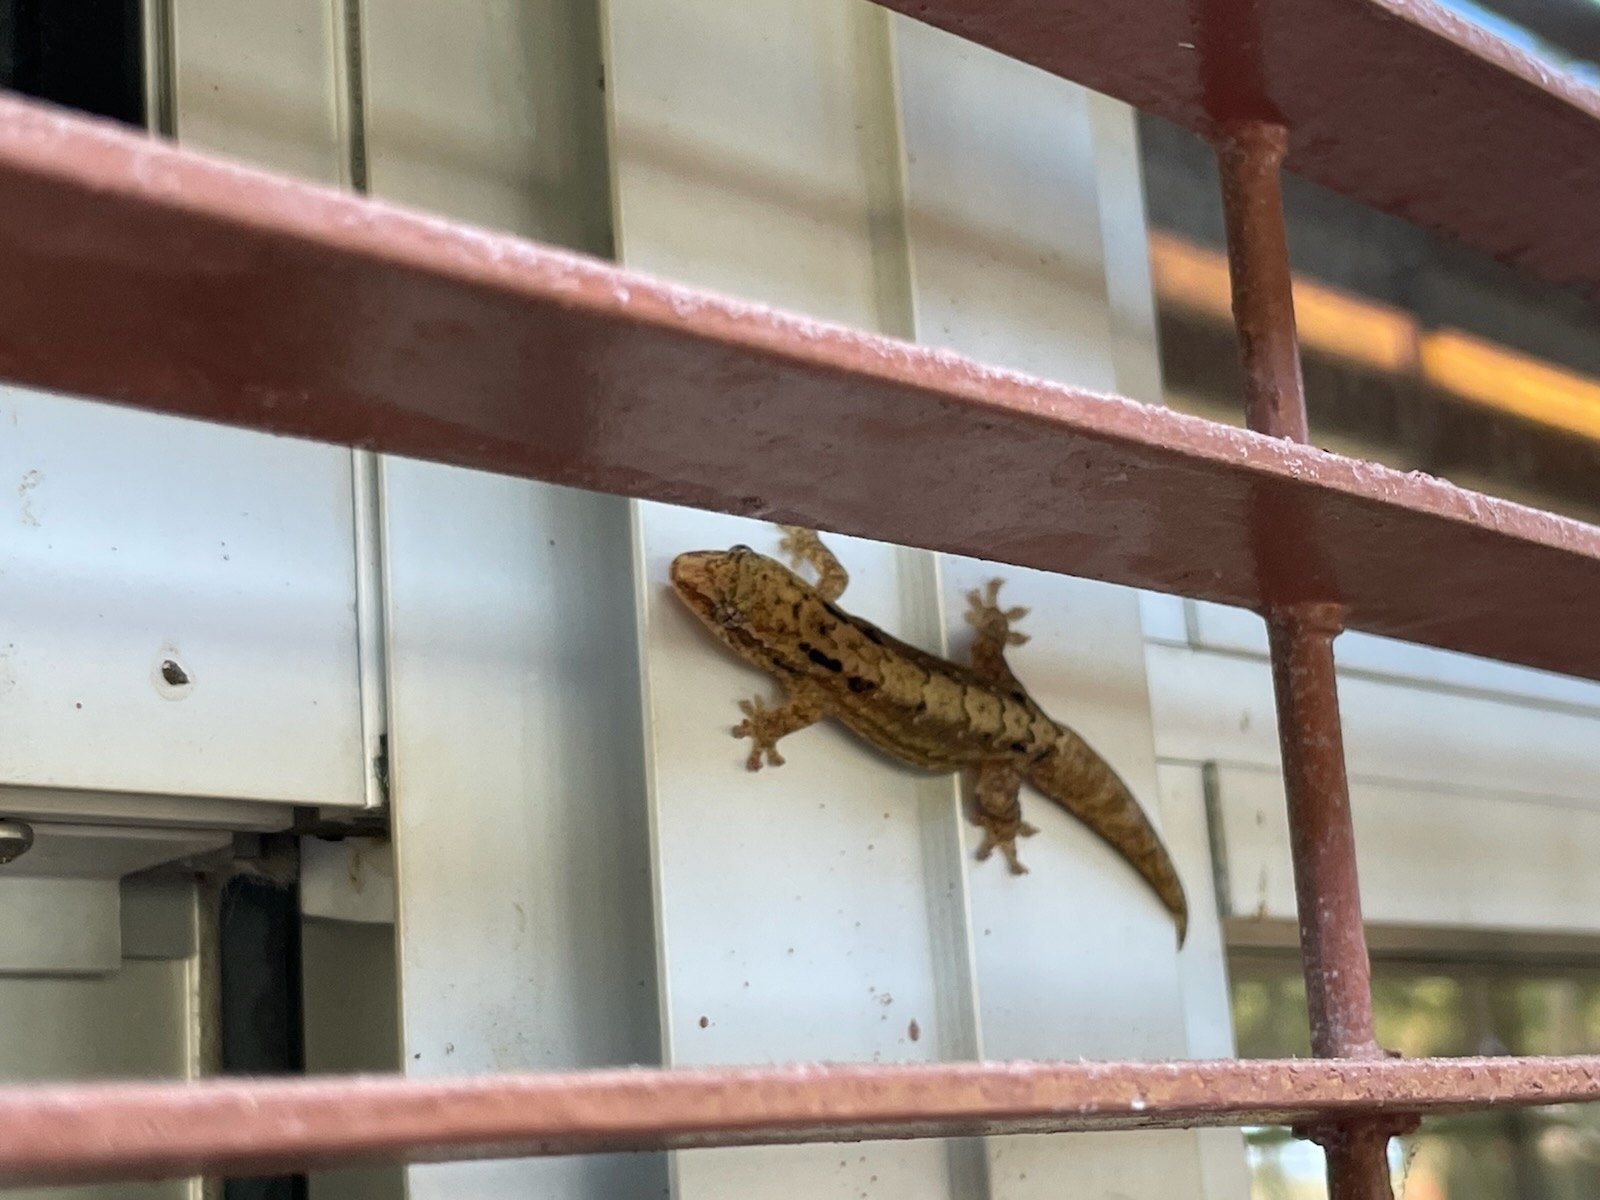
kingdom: Animalia
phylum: Chordata
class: Squamata
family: Gekkonidae
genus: Lepidodactylus
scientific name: Lepidodactylus lugubris
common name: Mourning gecko
